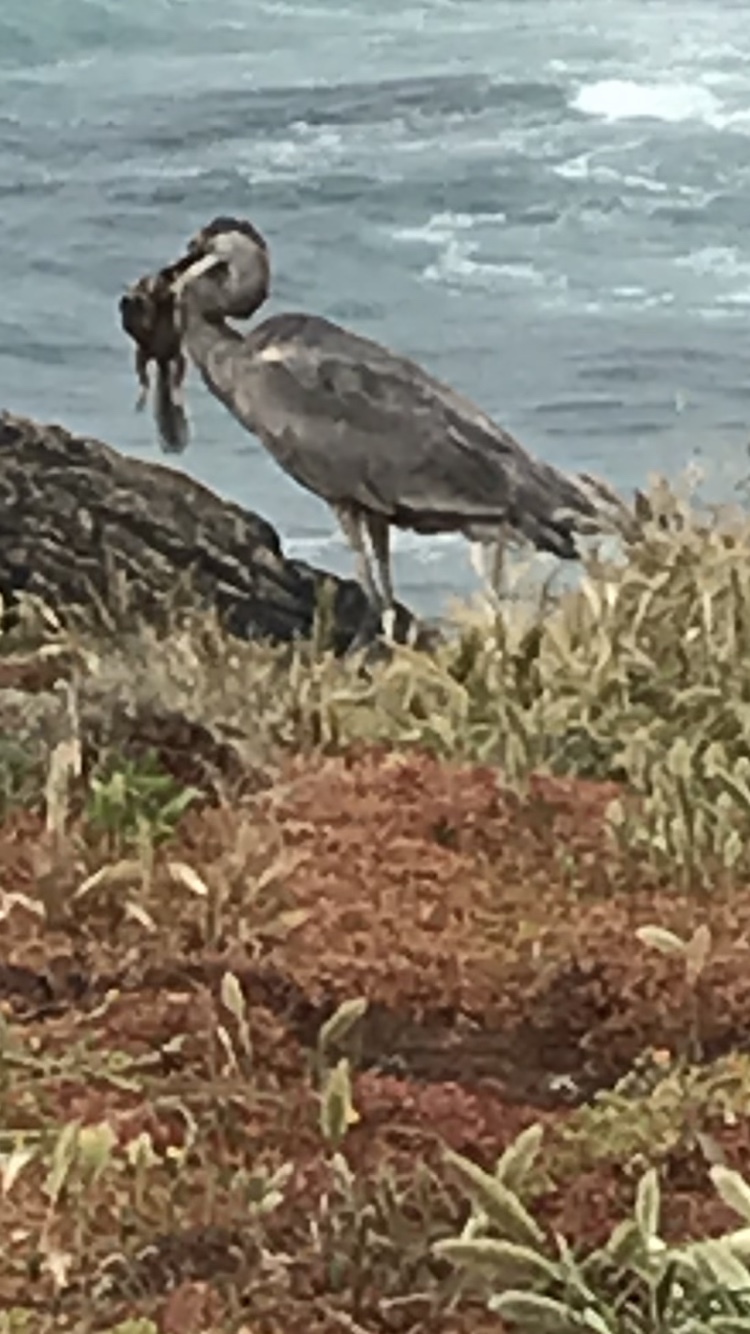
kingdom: Animalia
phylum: Chordata
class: Aves
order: Pelecaniformes
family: Ardeidae
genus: Ardea
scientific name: Ardea herodias
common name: Great blue heron
